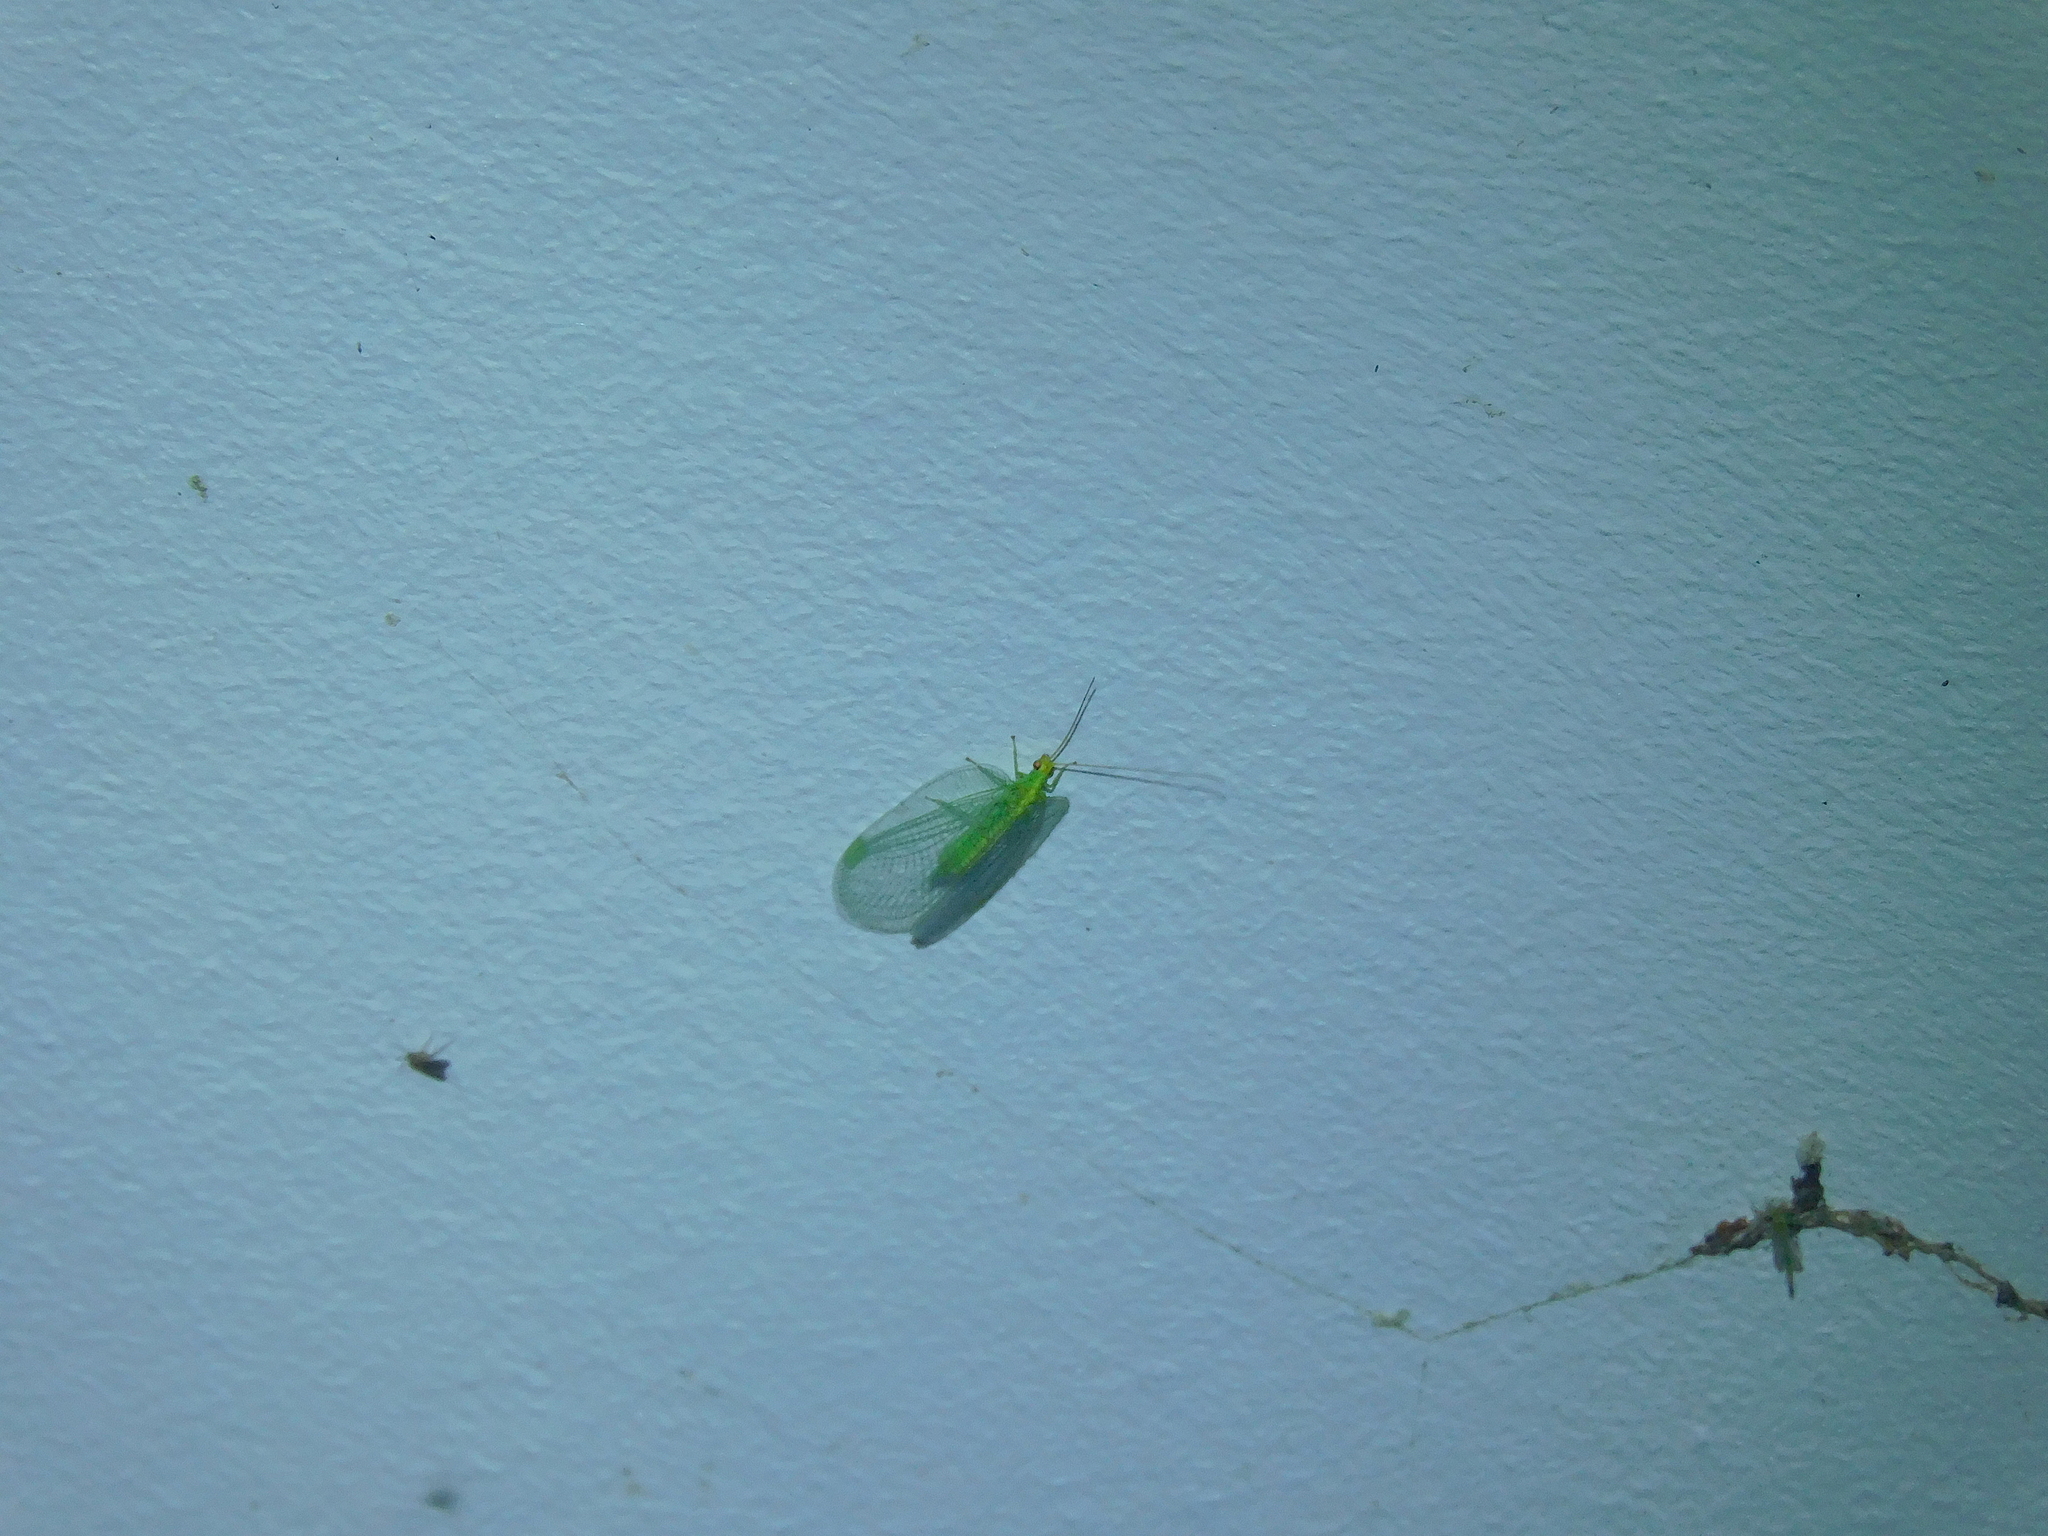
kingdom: Animalia
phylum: Arthropoda
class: Insecta
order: Neuroptera
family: Chrysopidae
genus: Nothancyla
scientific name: Nothancyla verreauxi
